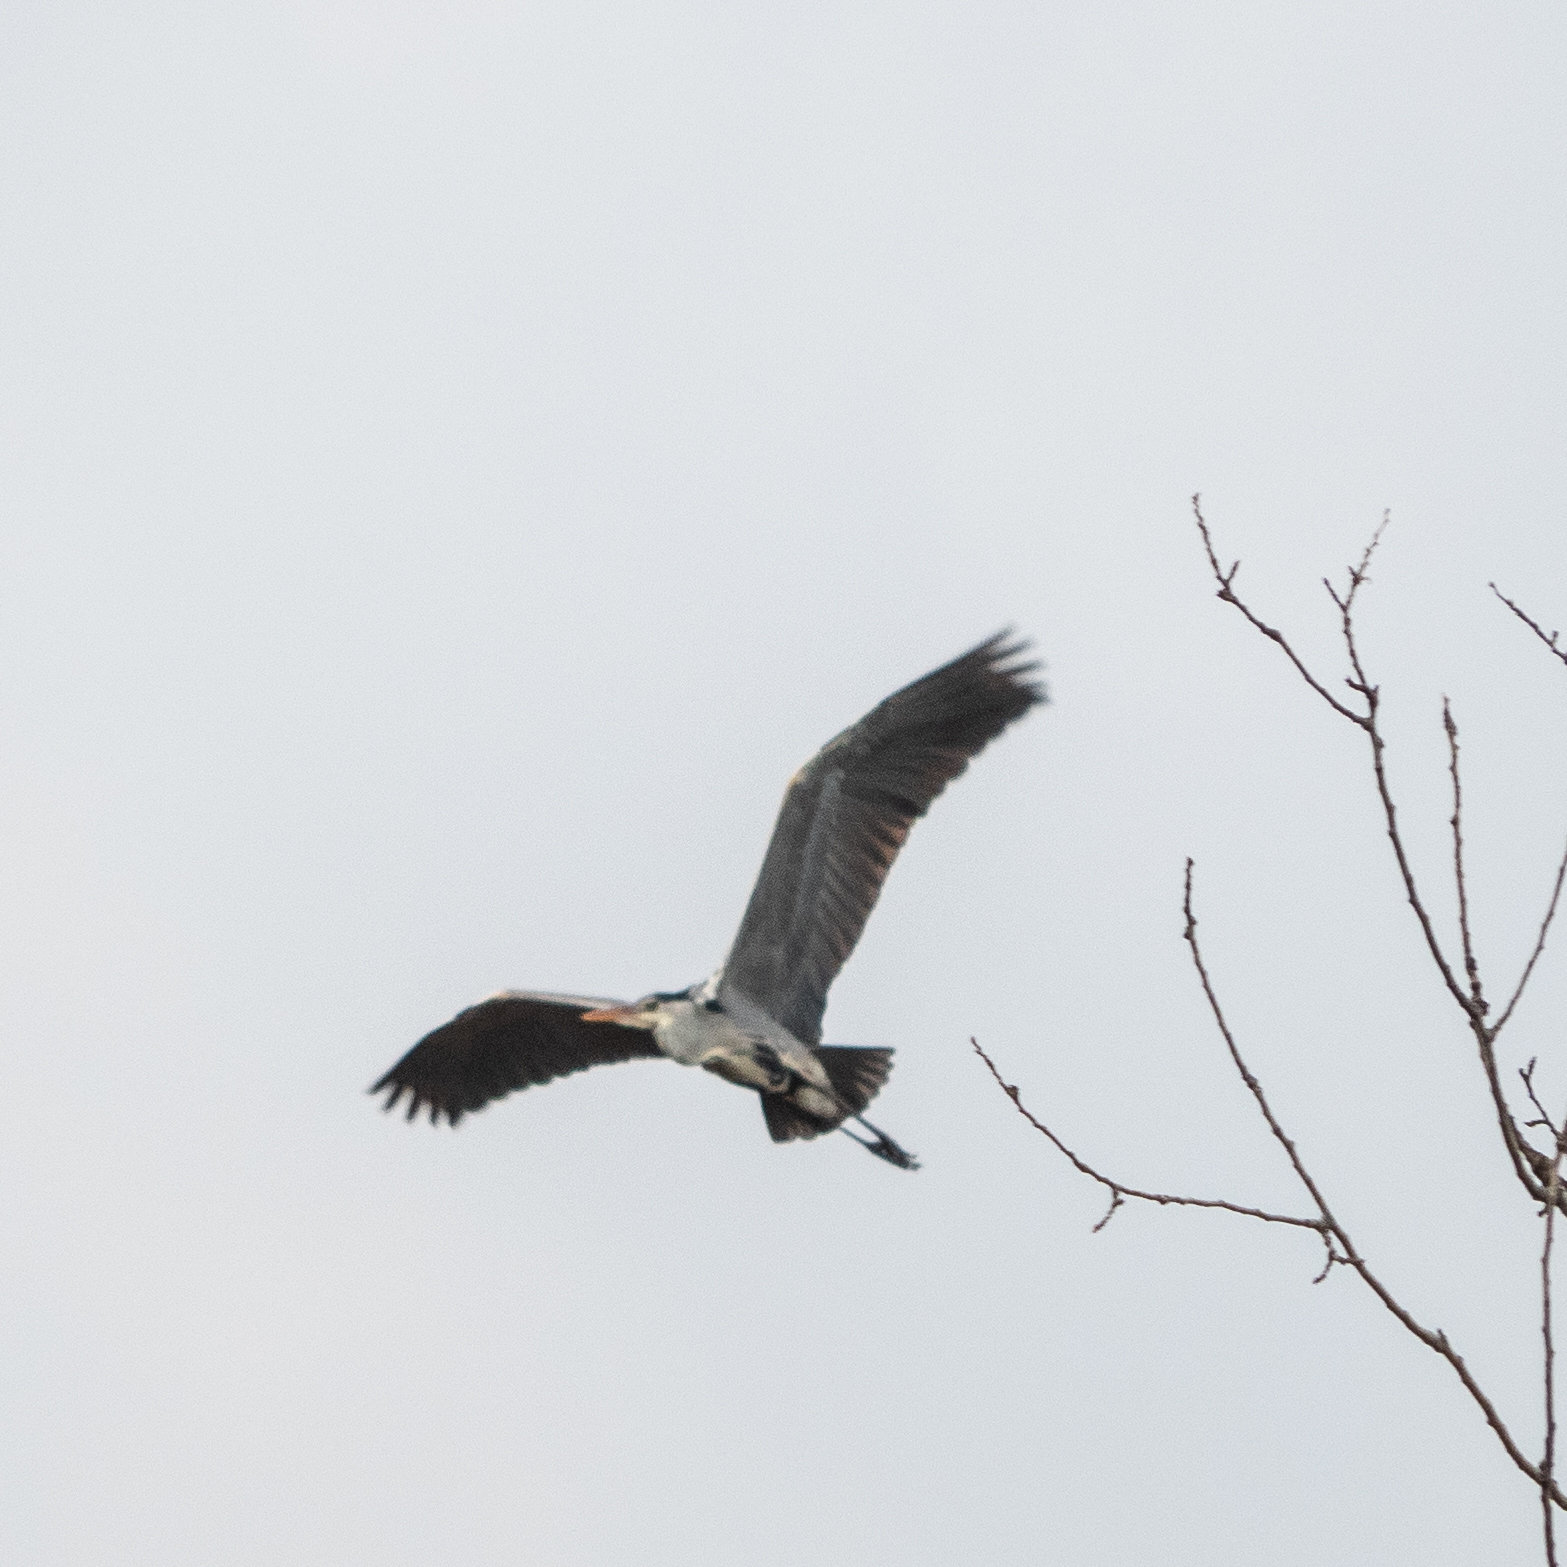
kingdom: Animalia
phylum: Chordata
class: Aves
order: Pelecaniformes
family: Ardeidae
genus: Ardea
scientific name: Ardea cinerea
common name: Grey heron
